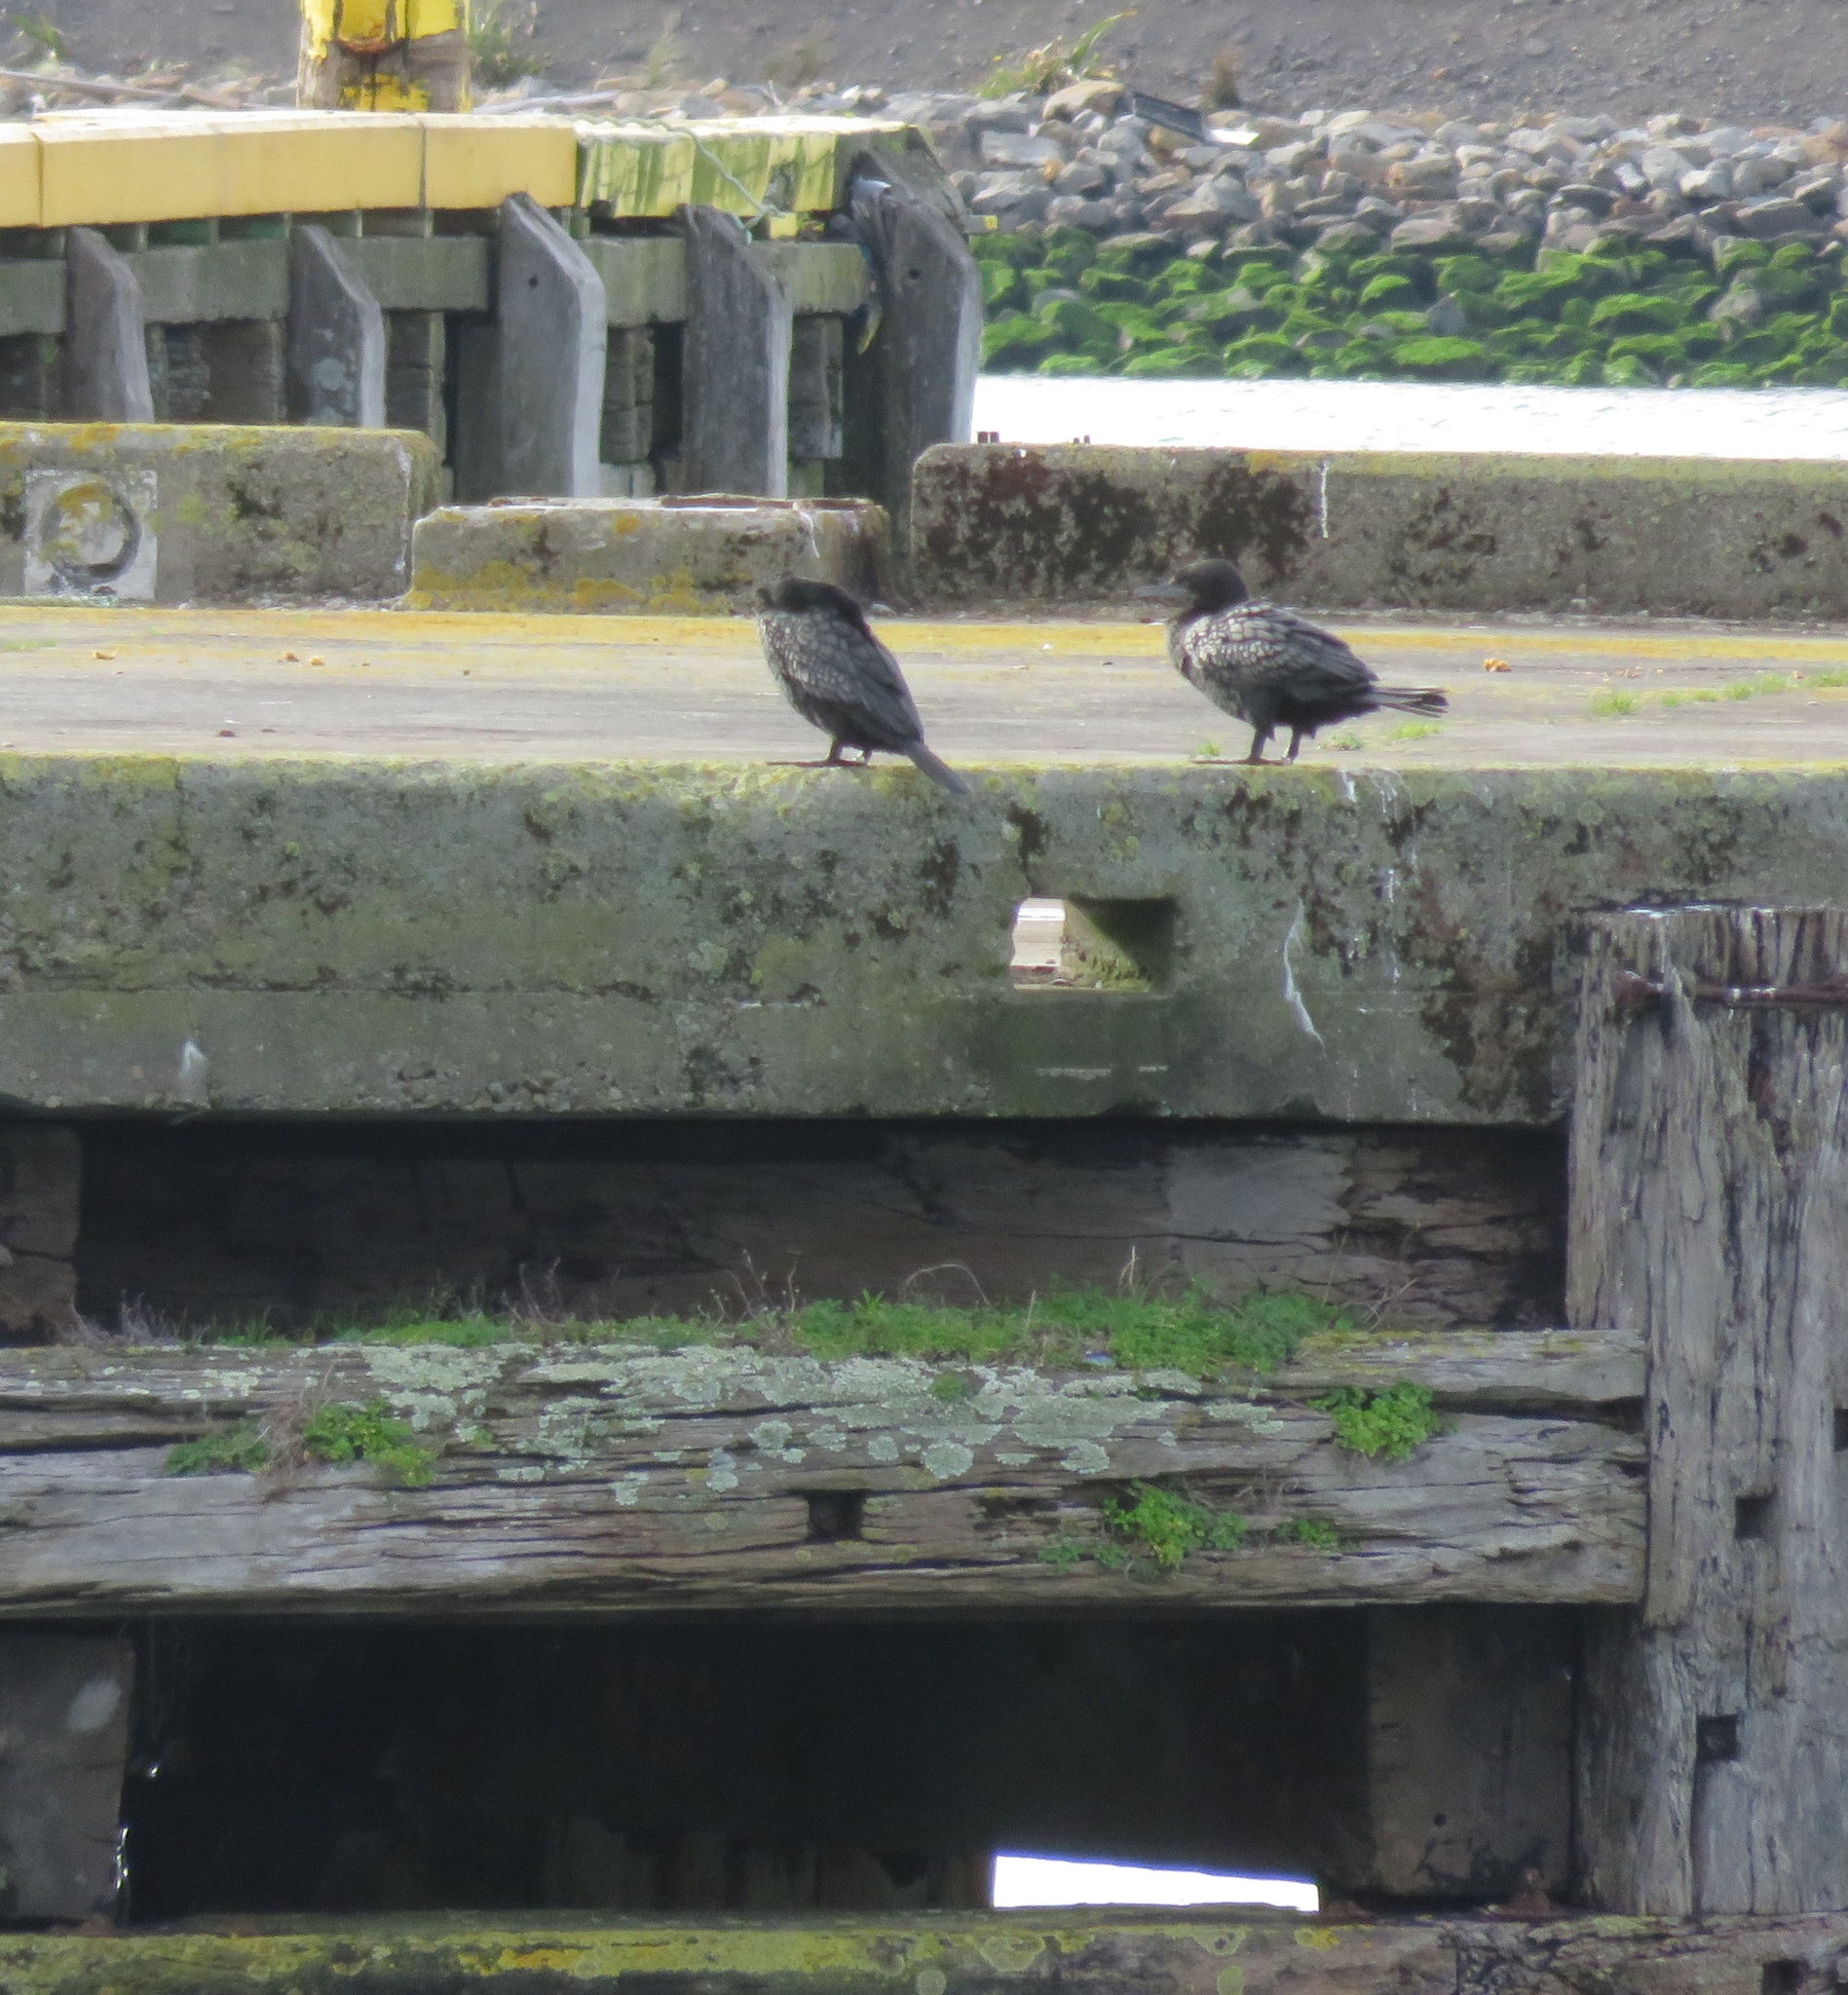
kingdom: Animalia
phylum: Chordata
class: Aves
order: Suliformes
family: Phalacrocoracidae
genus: Phalacrocorax
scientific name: Phalacrocorax sulcirostris
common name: Little black cormorant
